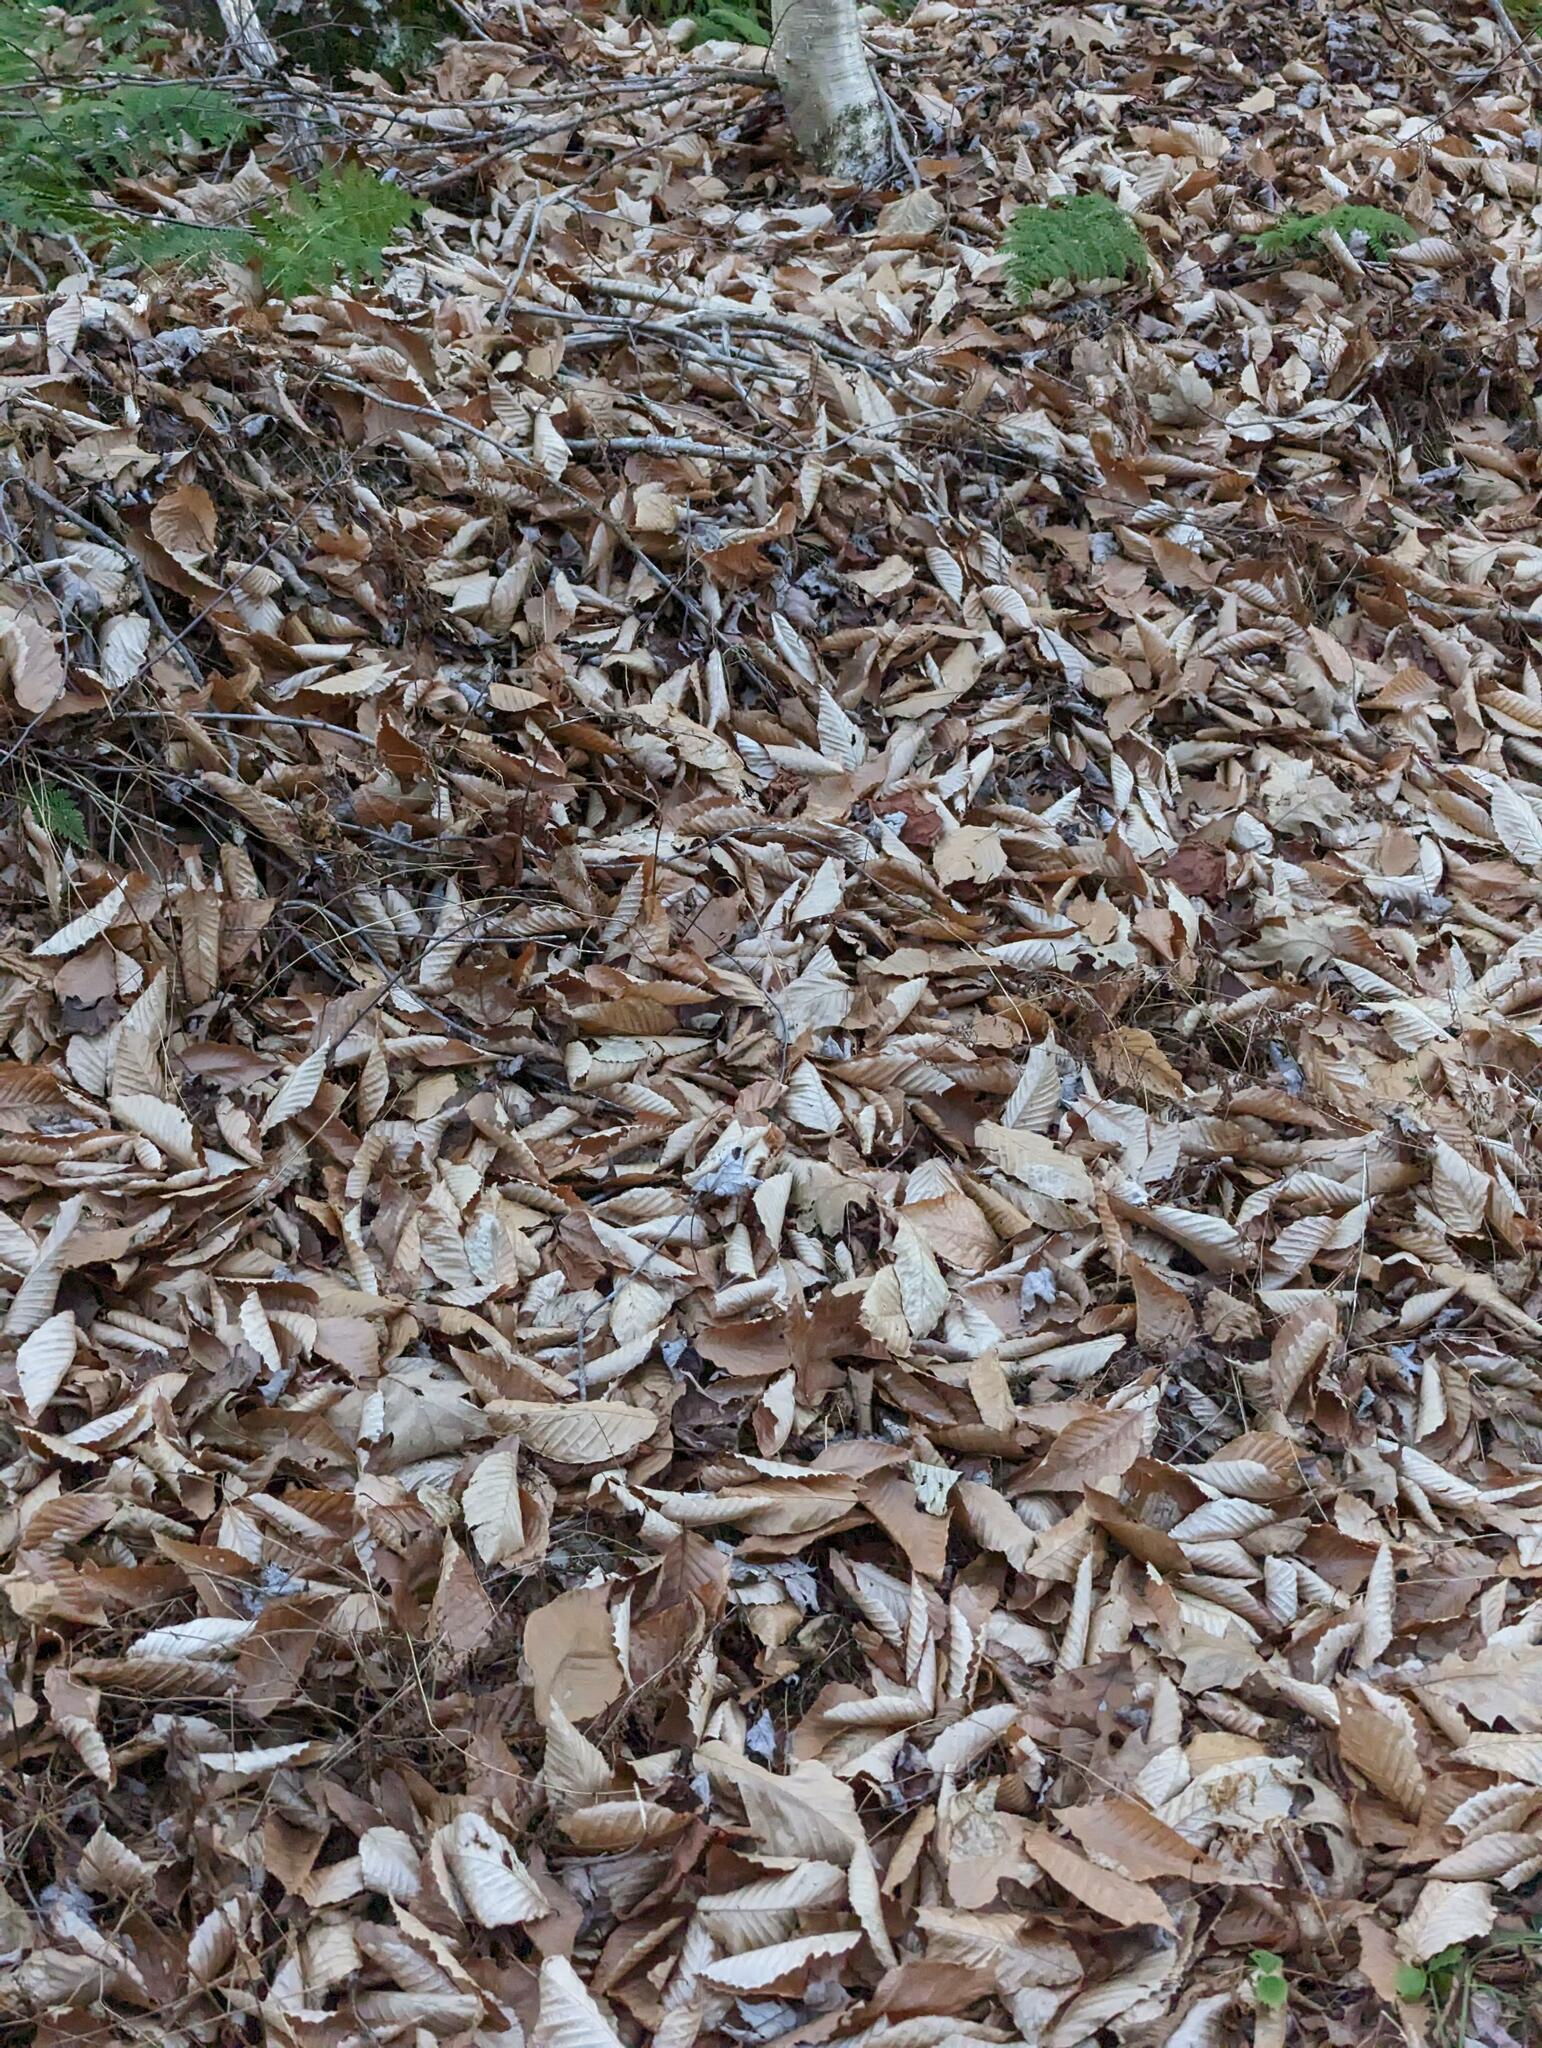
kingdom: Plantae
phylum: Tracheophyta
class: Magnoliopsida
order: Fagales
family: Fagaceae
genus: Fagus
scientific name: Fagus grandifolia
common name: American beech
